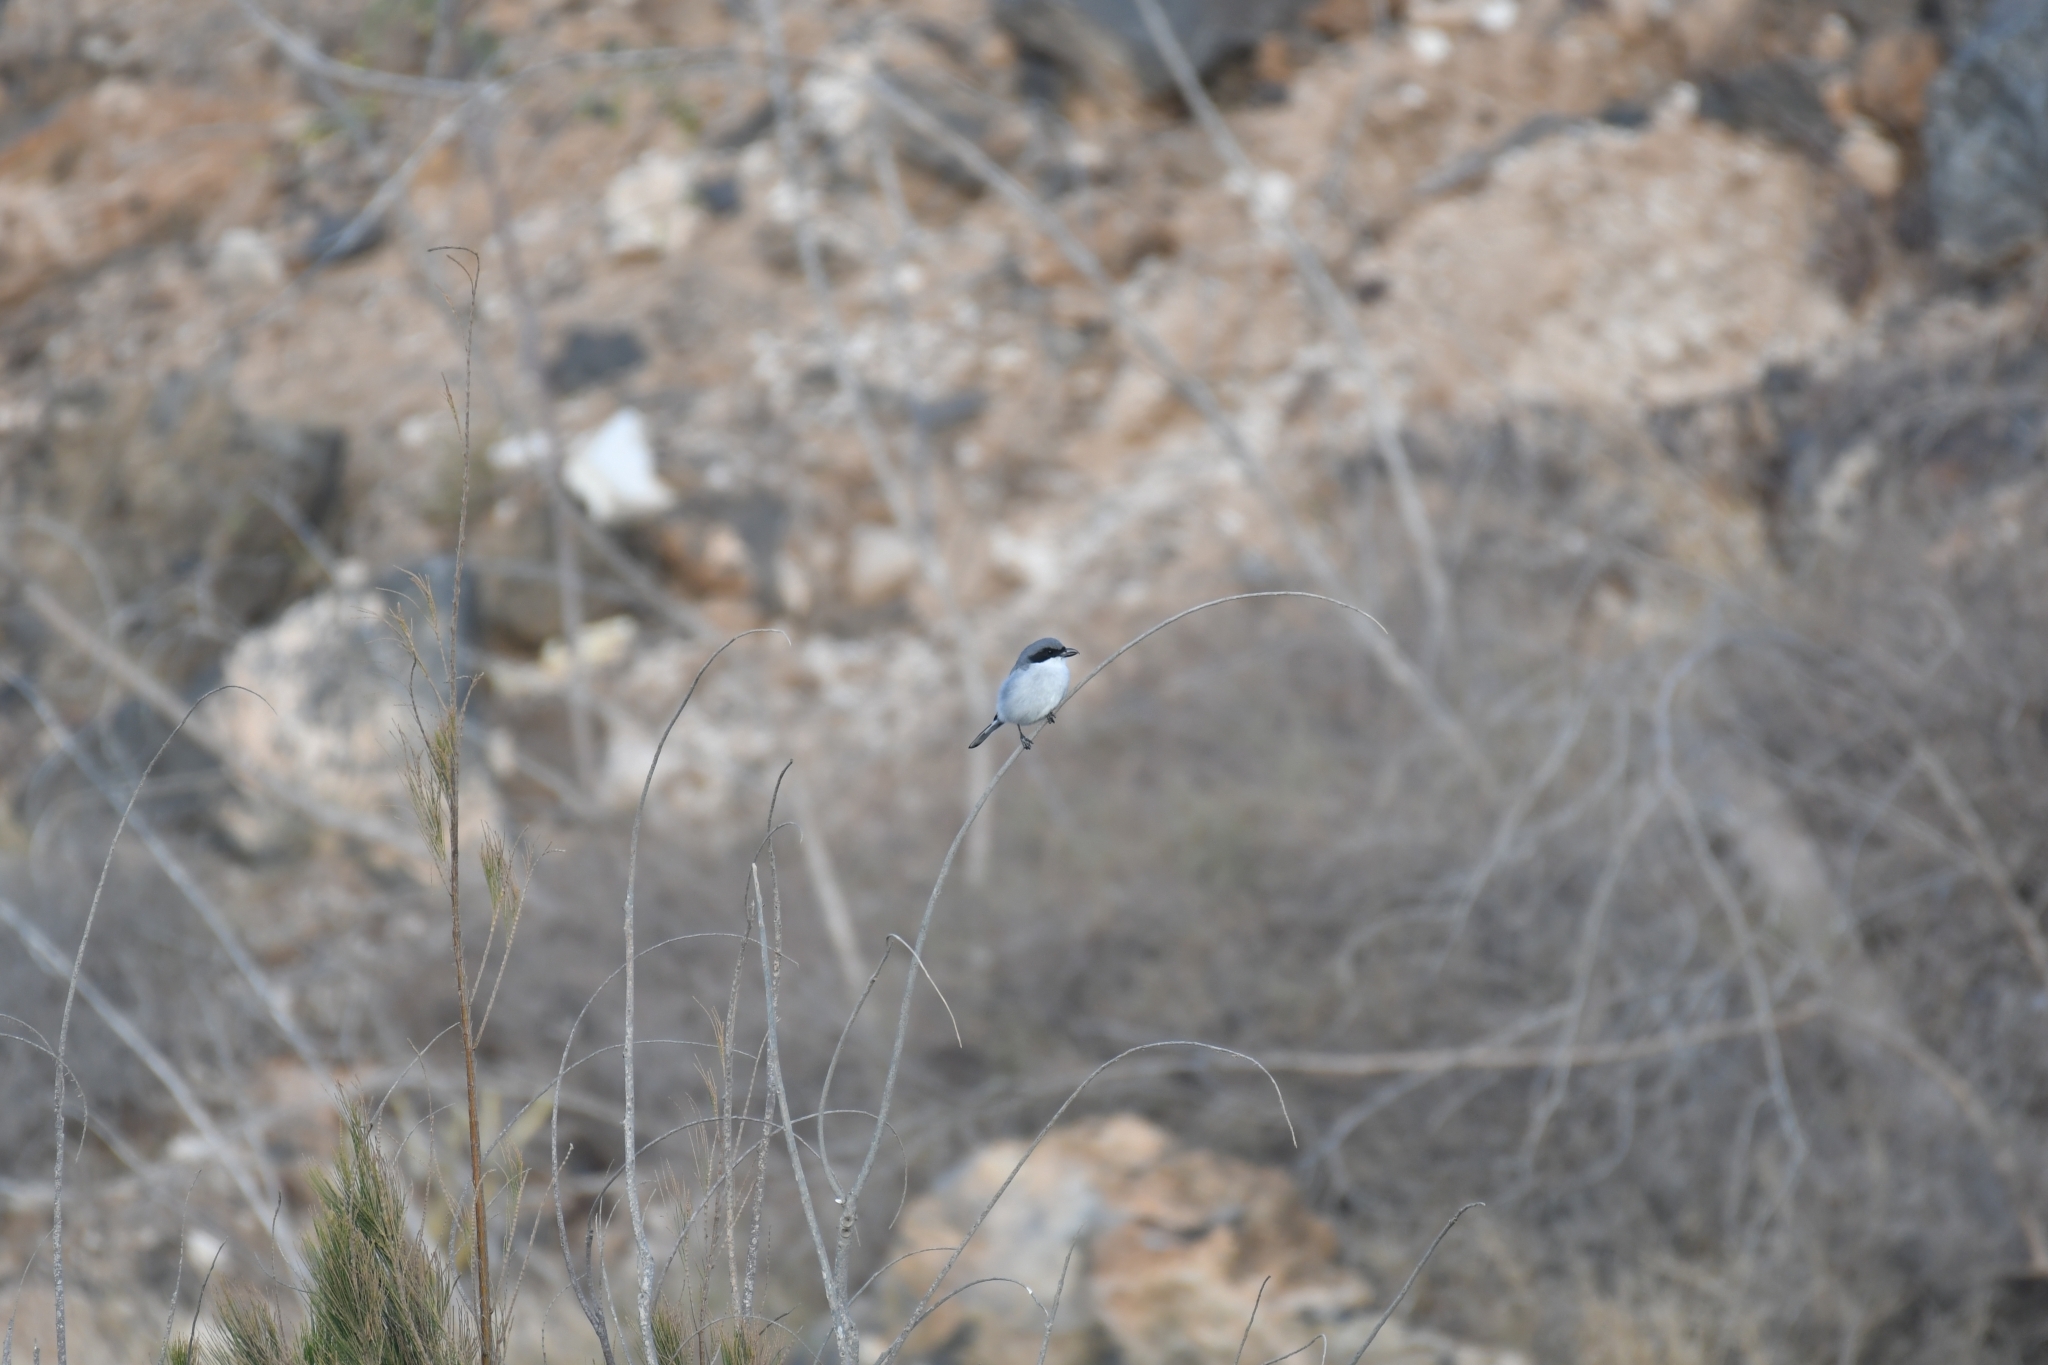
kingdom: Animalia
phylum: Chordata
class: Aves
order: Passeriformes
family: Laniidae
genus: Lanius
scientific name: Lanius excubitor
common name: Great grey shrike
